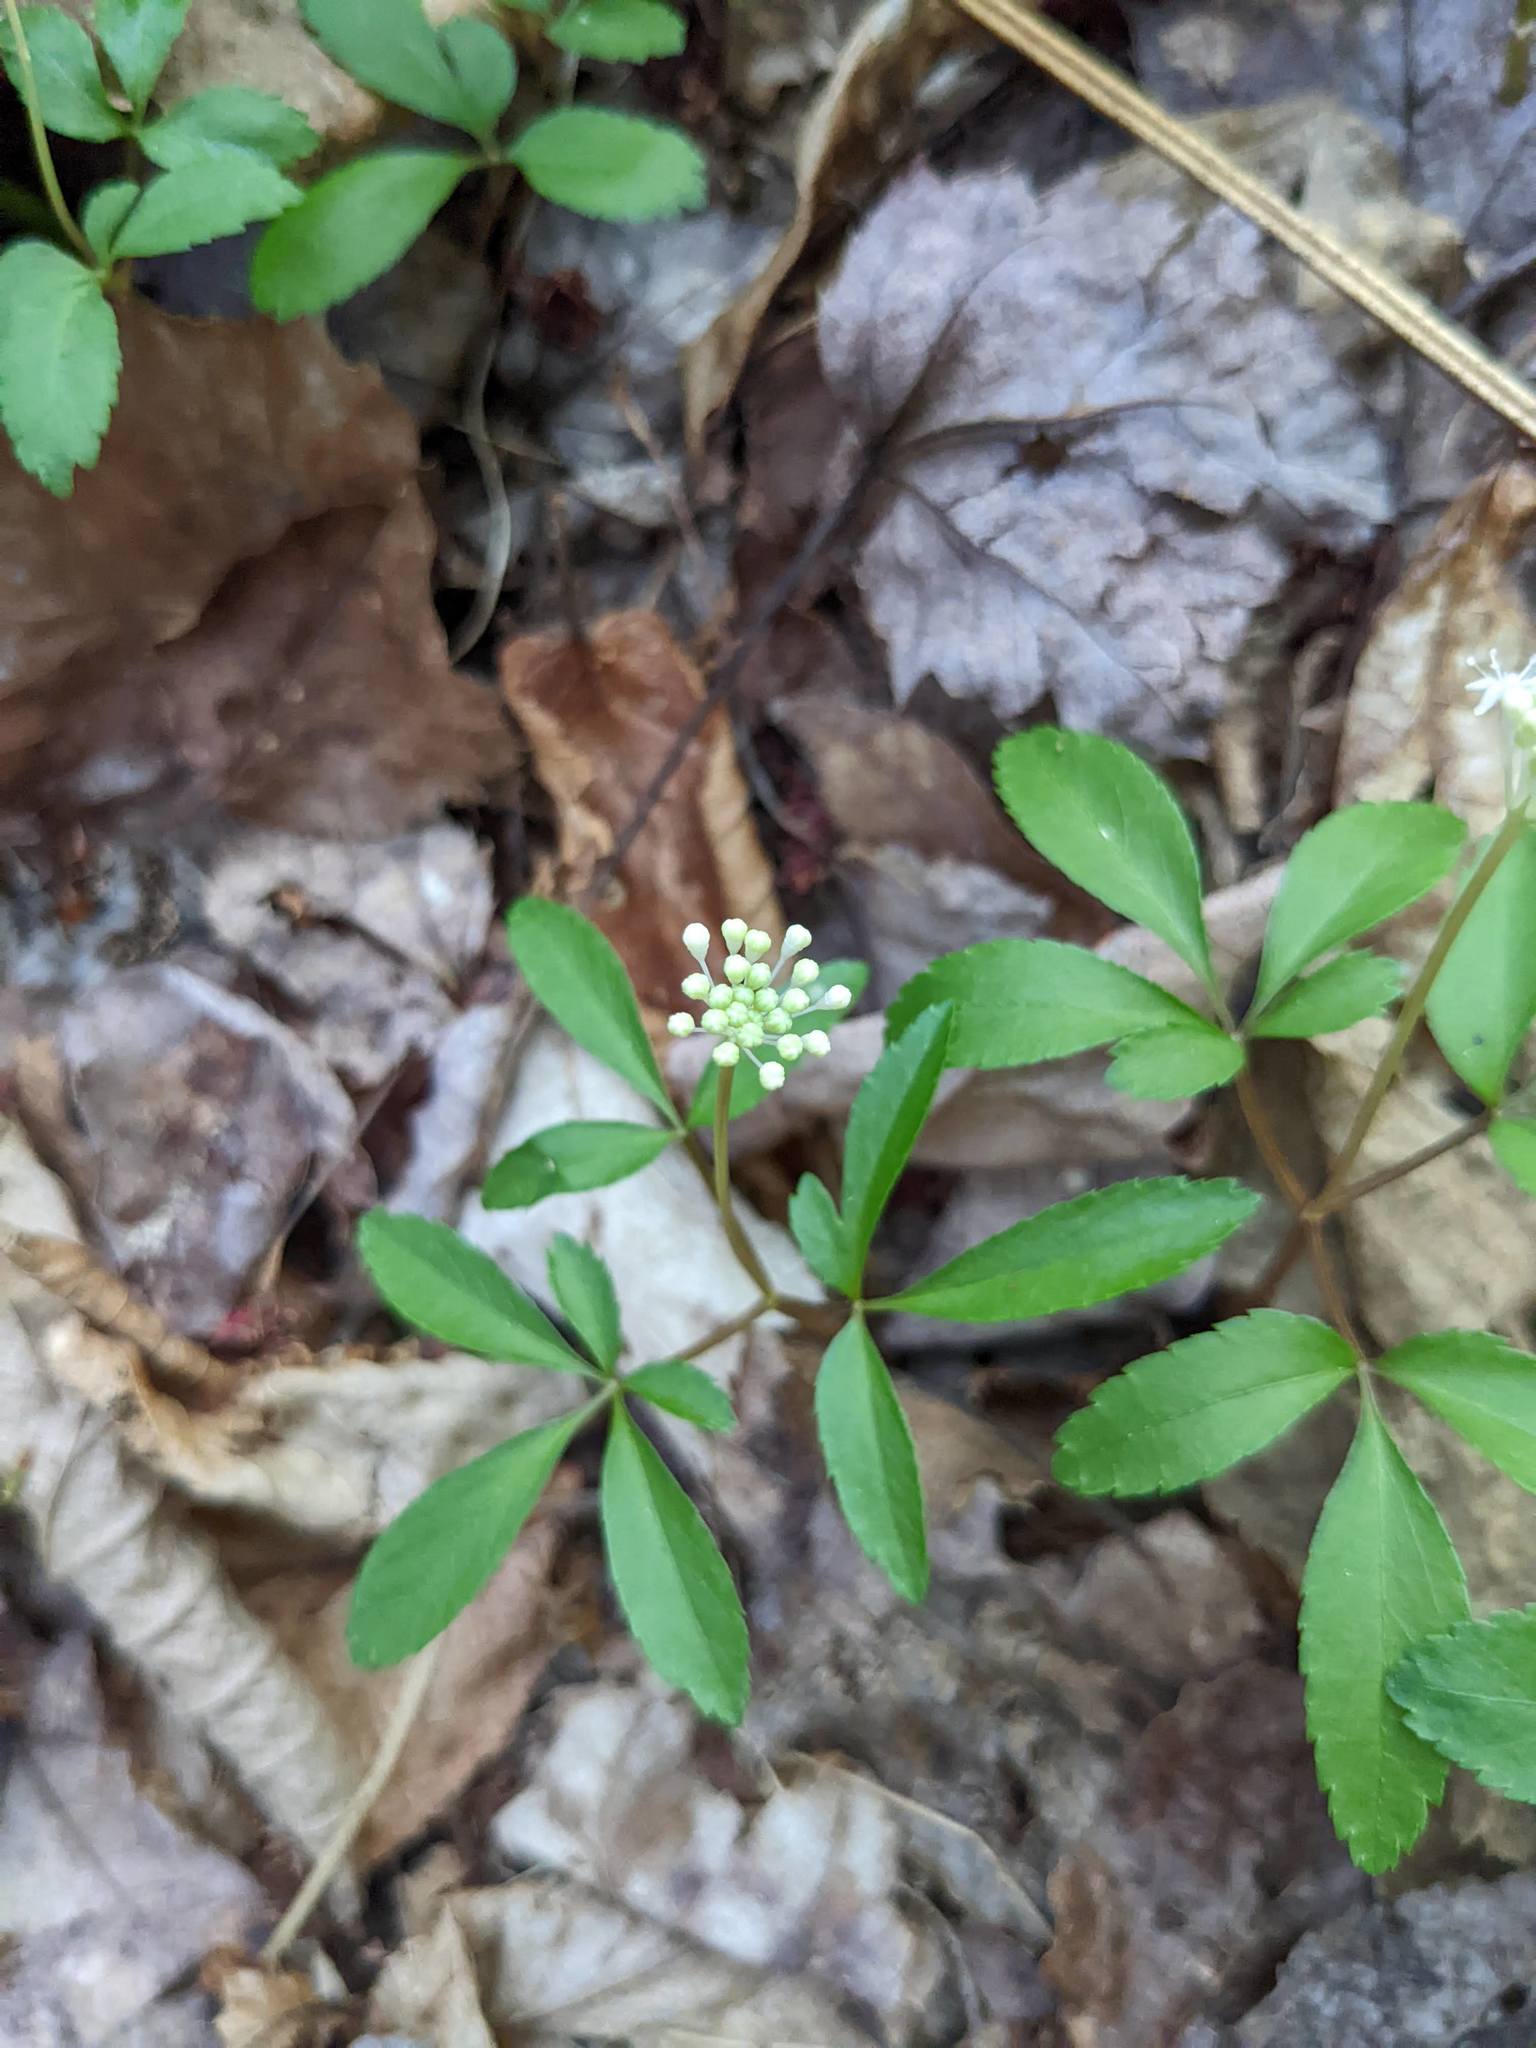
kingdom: Plantae
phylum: Tracheophyta
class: Magnoliopsida
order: Apiales
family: Araliaceae
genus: Panax
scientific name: Panax trifolius
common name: Dwarf ginseng
